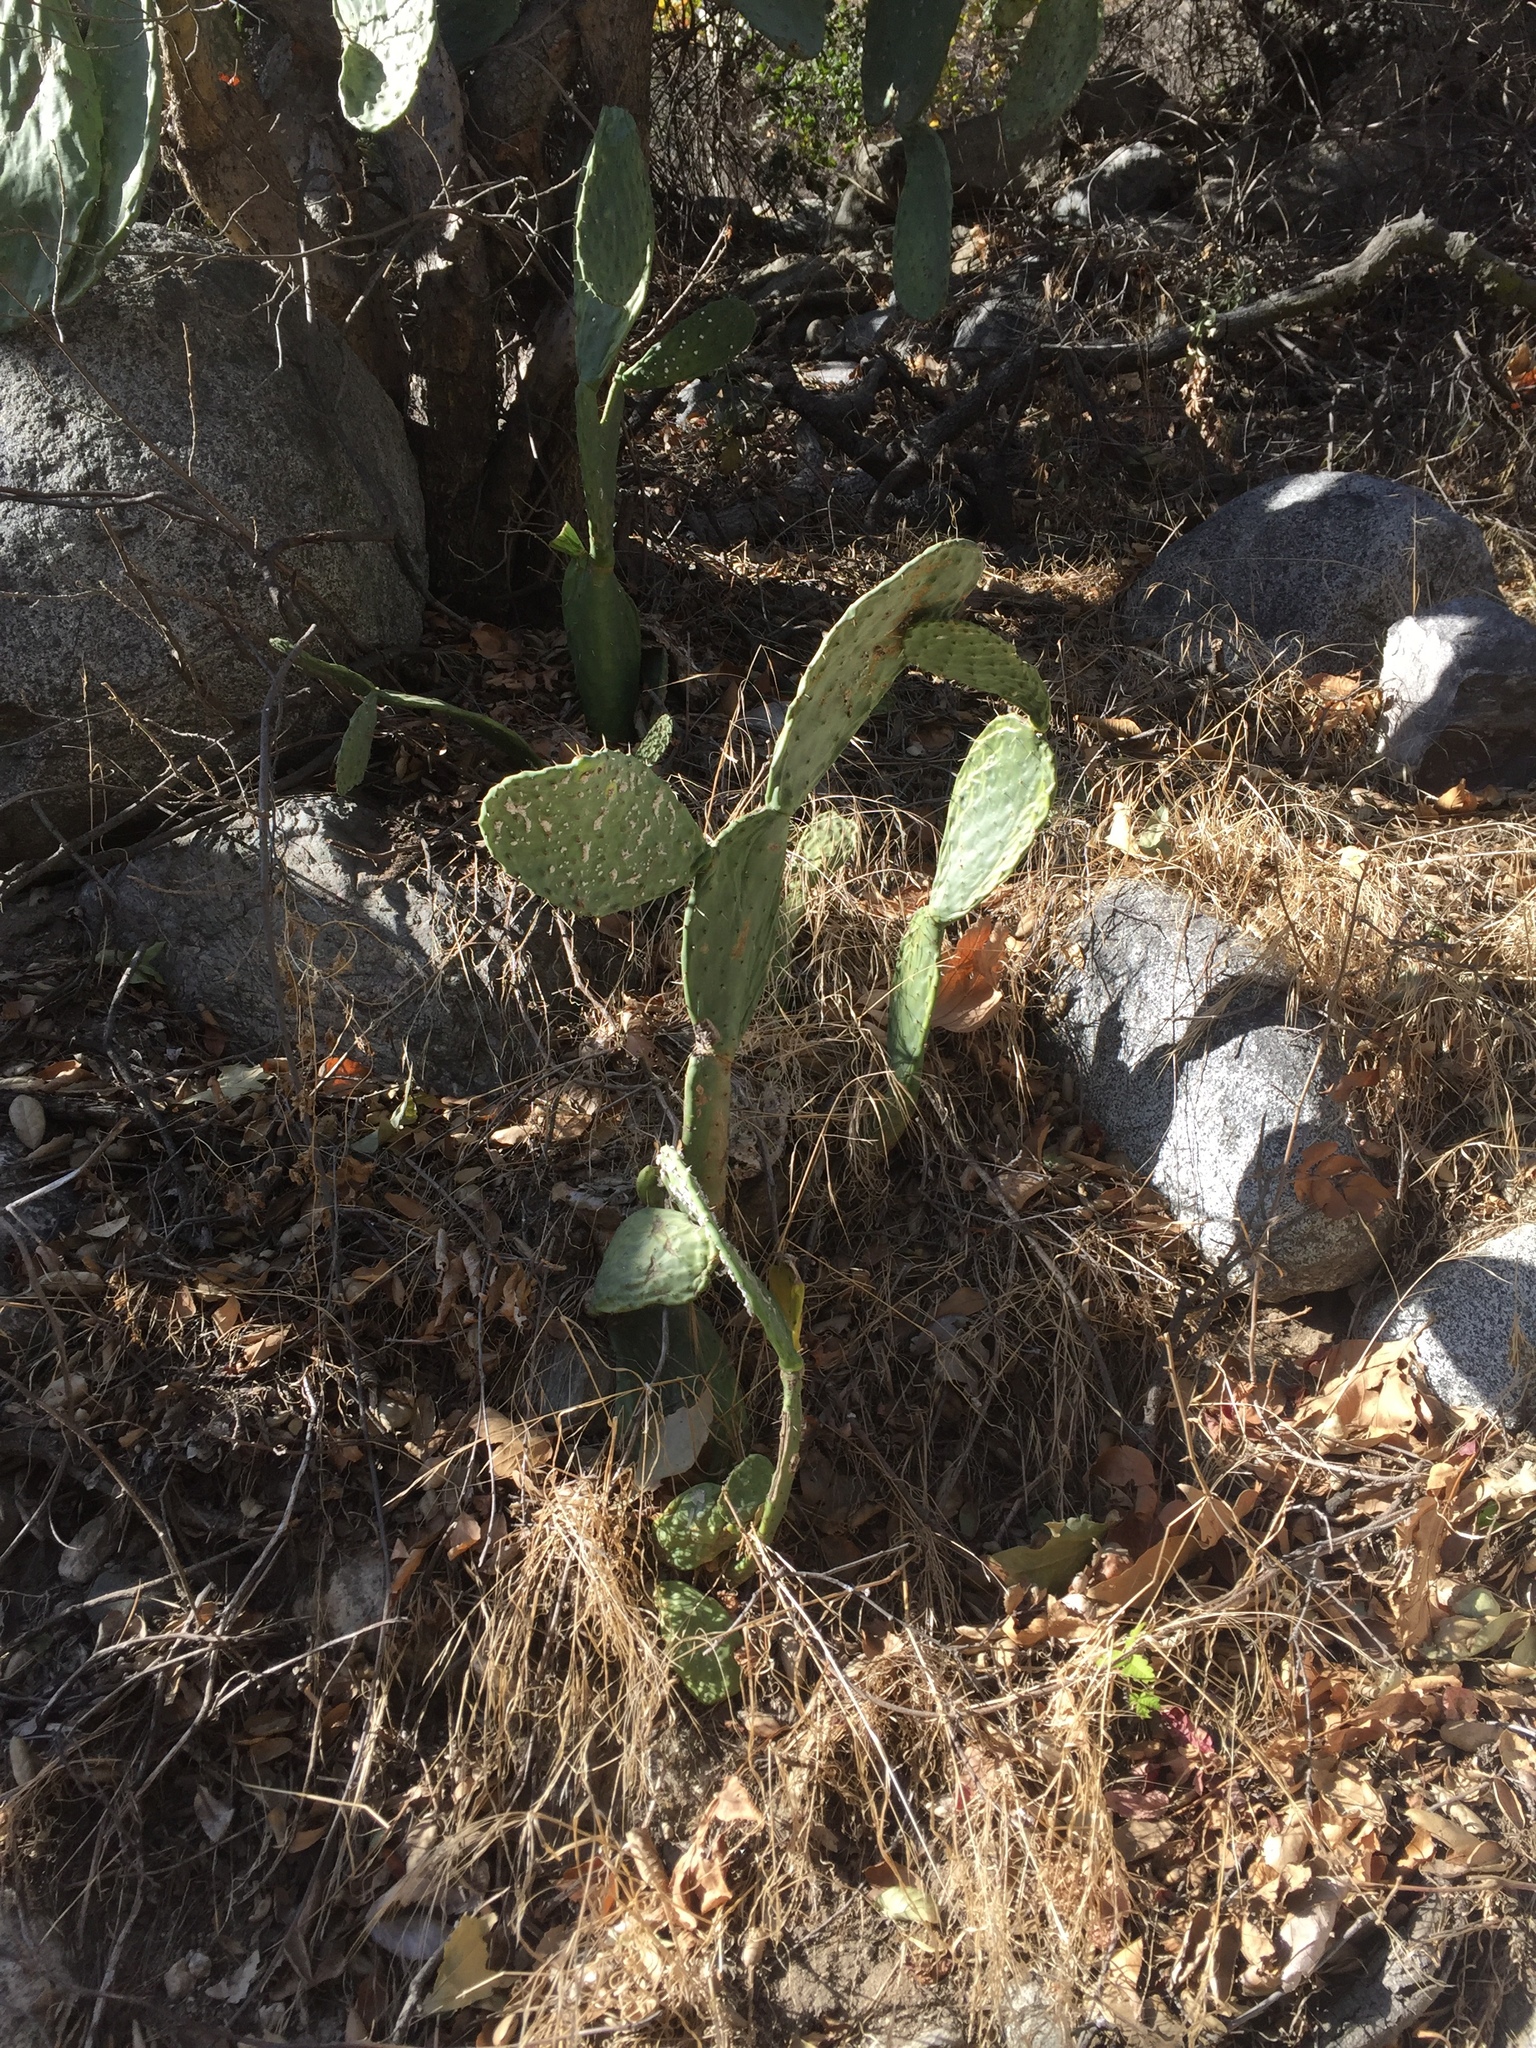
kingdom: Animalia
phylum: Arthropoda
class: Insecta
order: Hemiptera
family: Dactylopiidae
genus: Dactylopius
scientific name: Dactylopius
